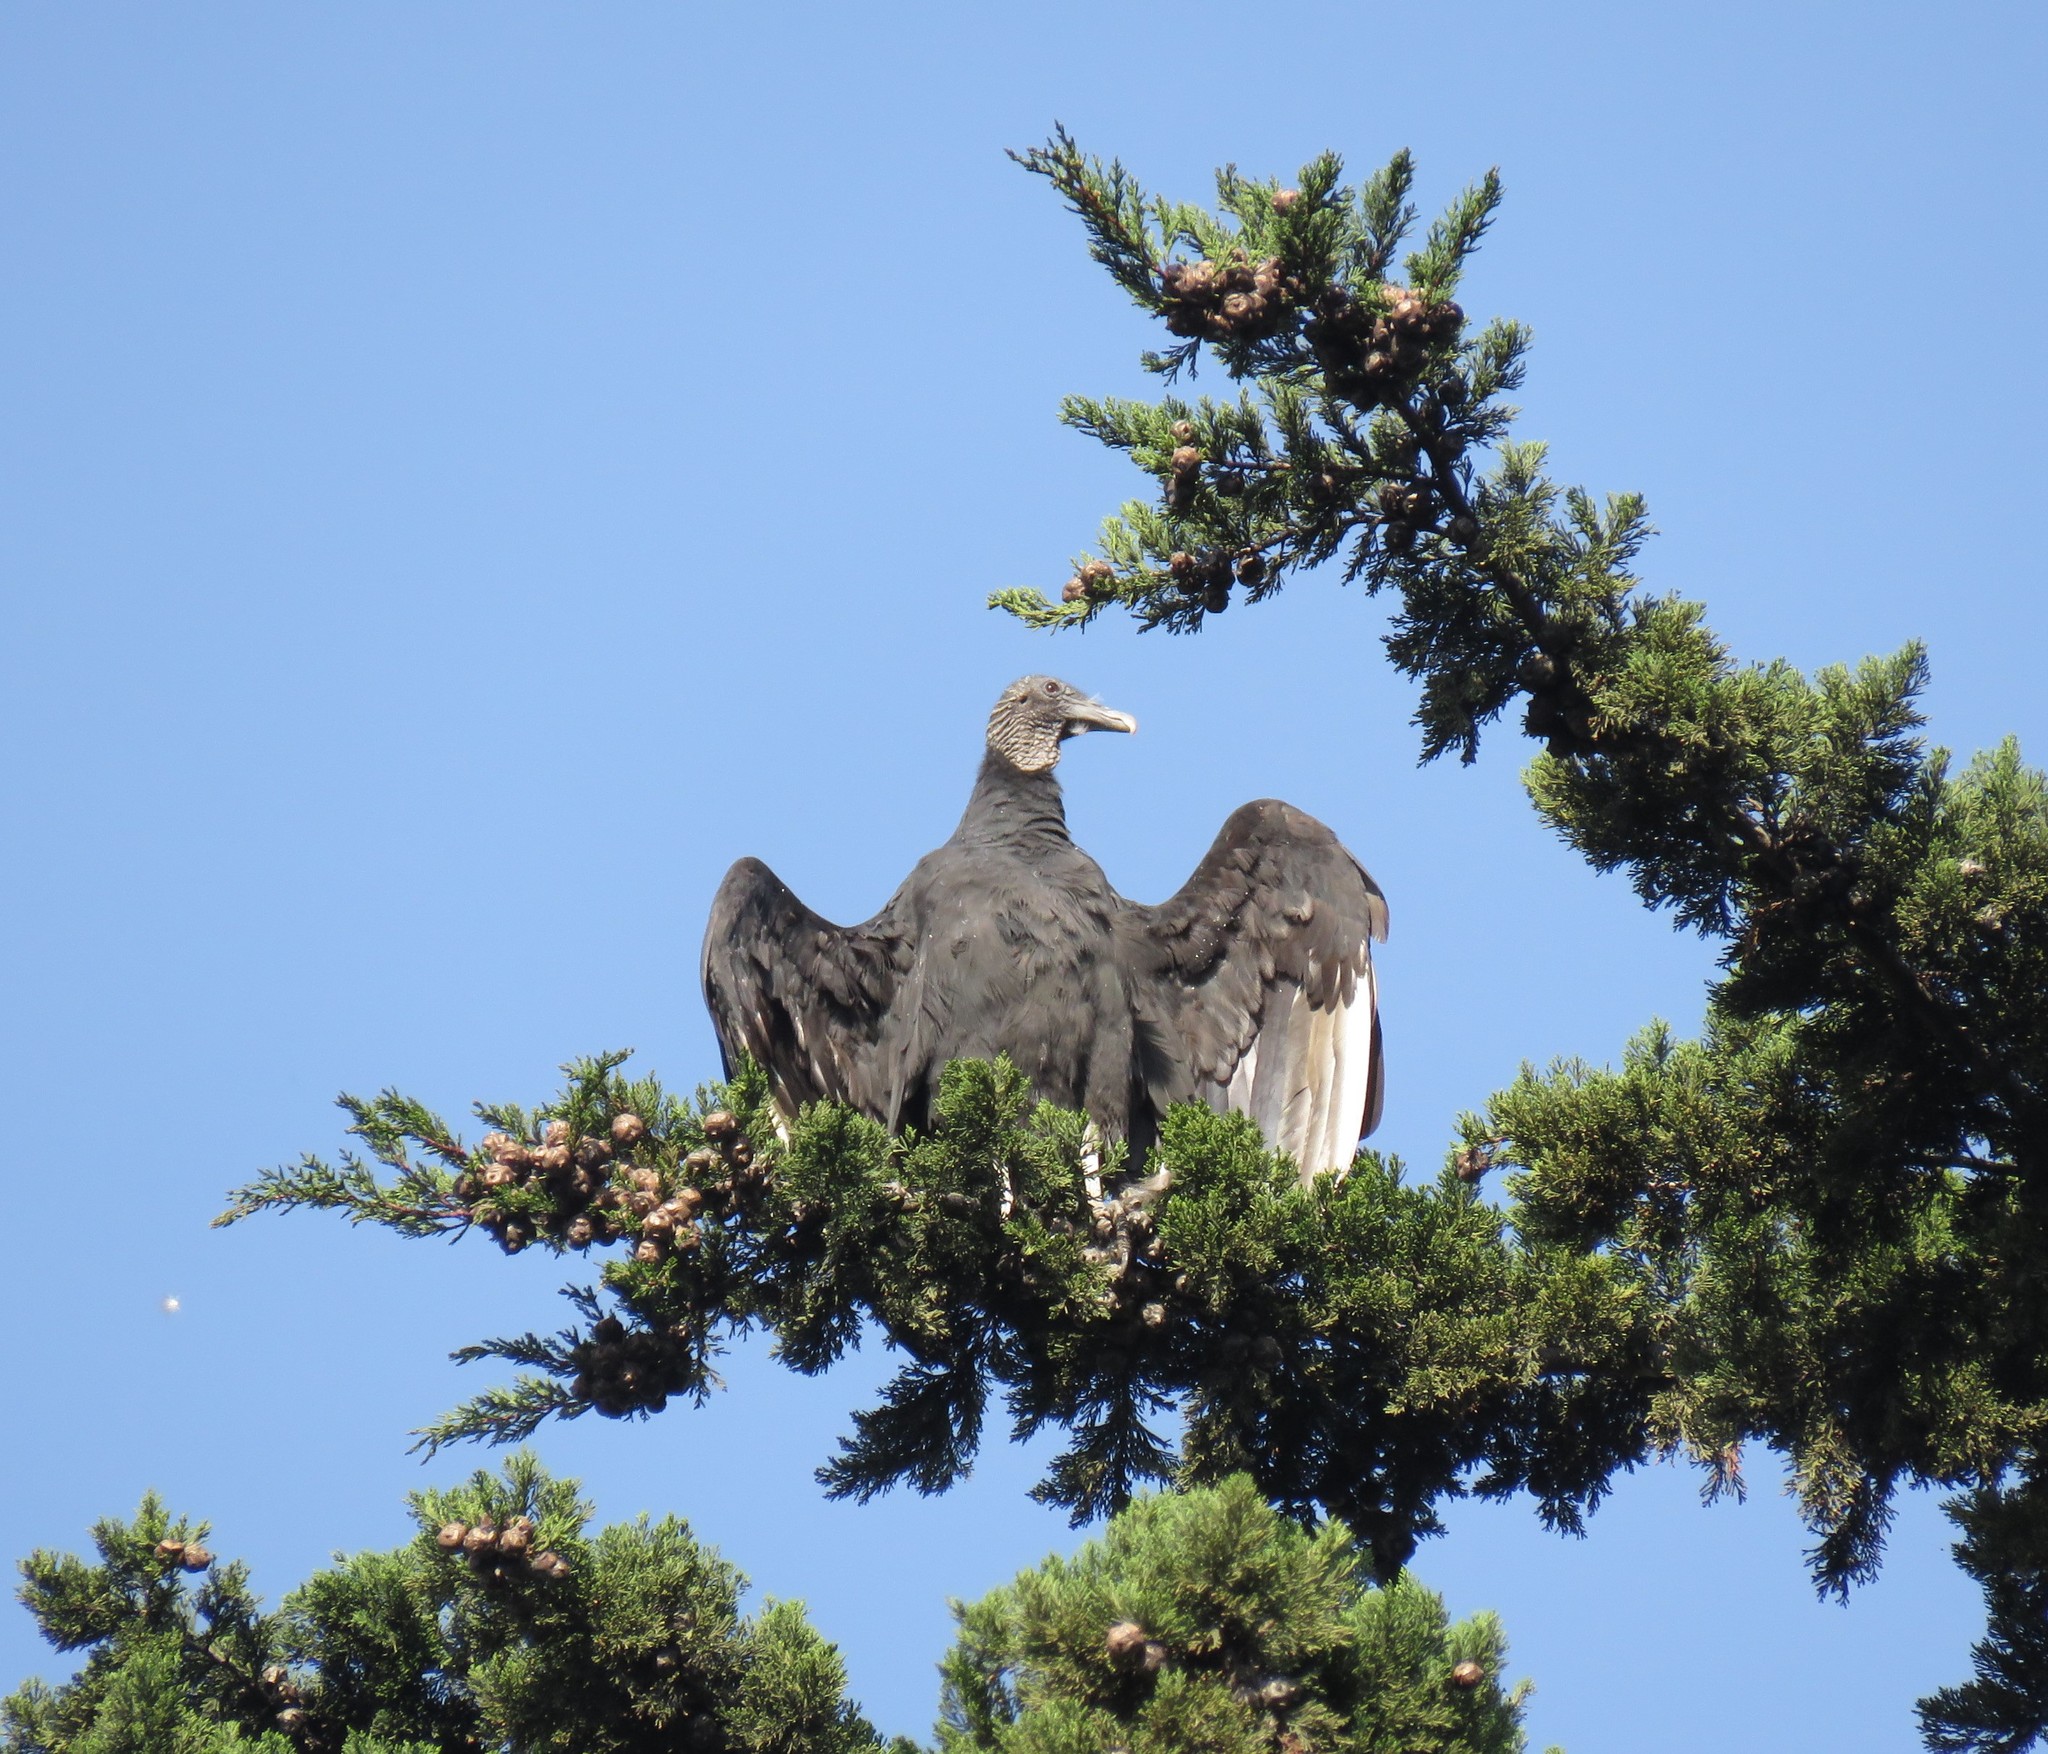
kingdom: Animalia
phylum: Chordata
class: Aves
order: Accipitriformes
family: Cathartidae
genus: Coragyps
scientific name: Coragyps atratus
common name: Black vulture
